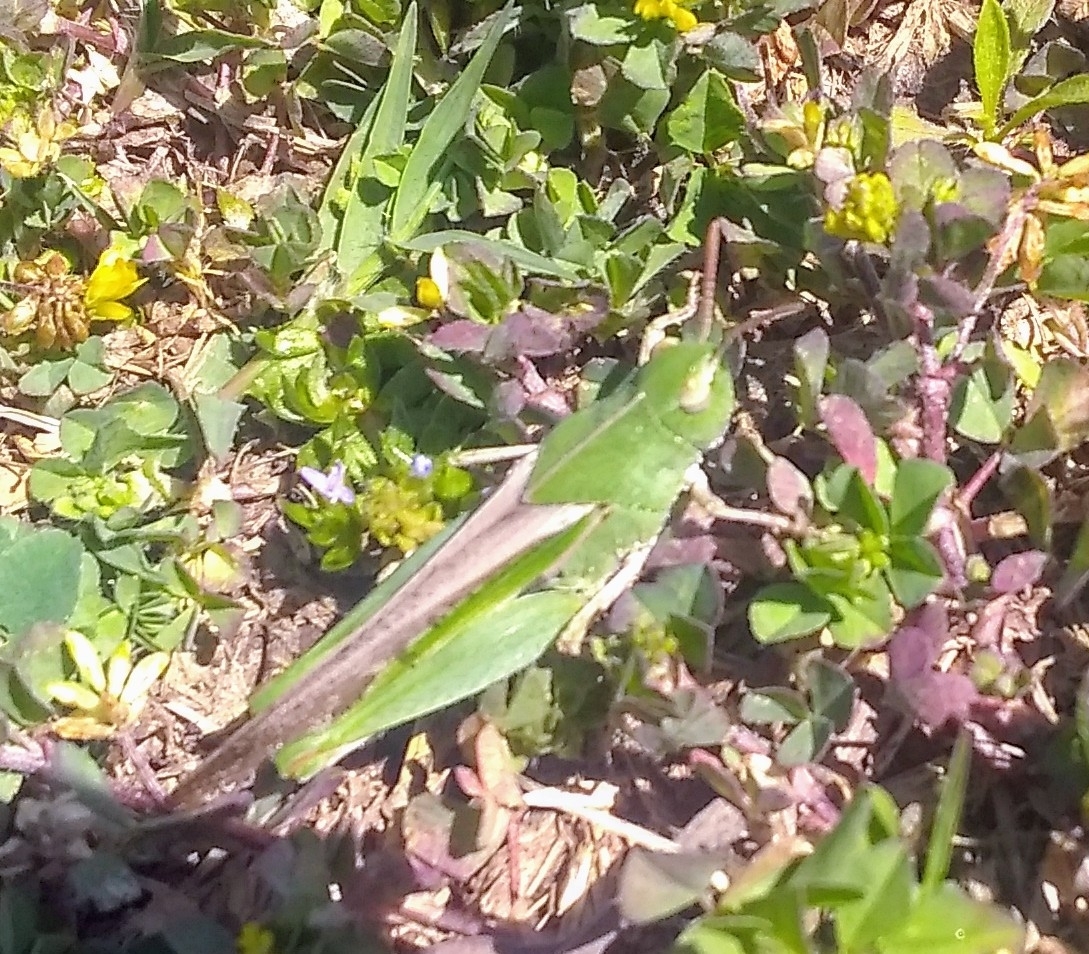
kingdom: Animalia
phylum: Arthropoda
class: Insecta
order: Orthoptera
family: Acrididae
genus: Chortophaga
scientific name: Chortophaga viridifasciata
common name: Green-striped grasshopper
